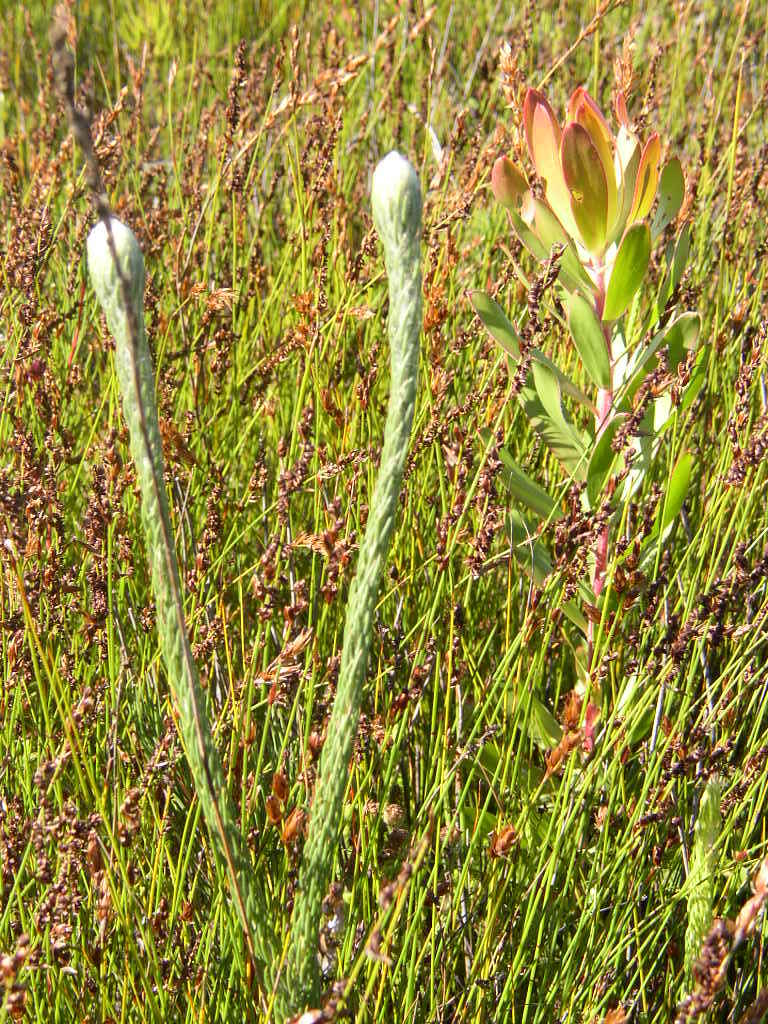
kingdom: Plantae
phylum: Tracheophyta
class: Magnoliopsida
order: Proteales
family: Proteaceae
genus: Sorocephalus
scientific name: Sorocephalus claviger
